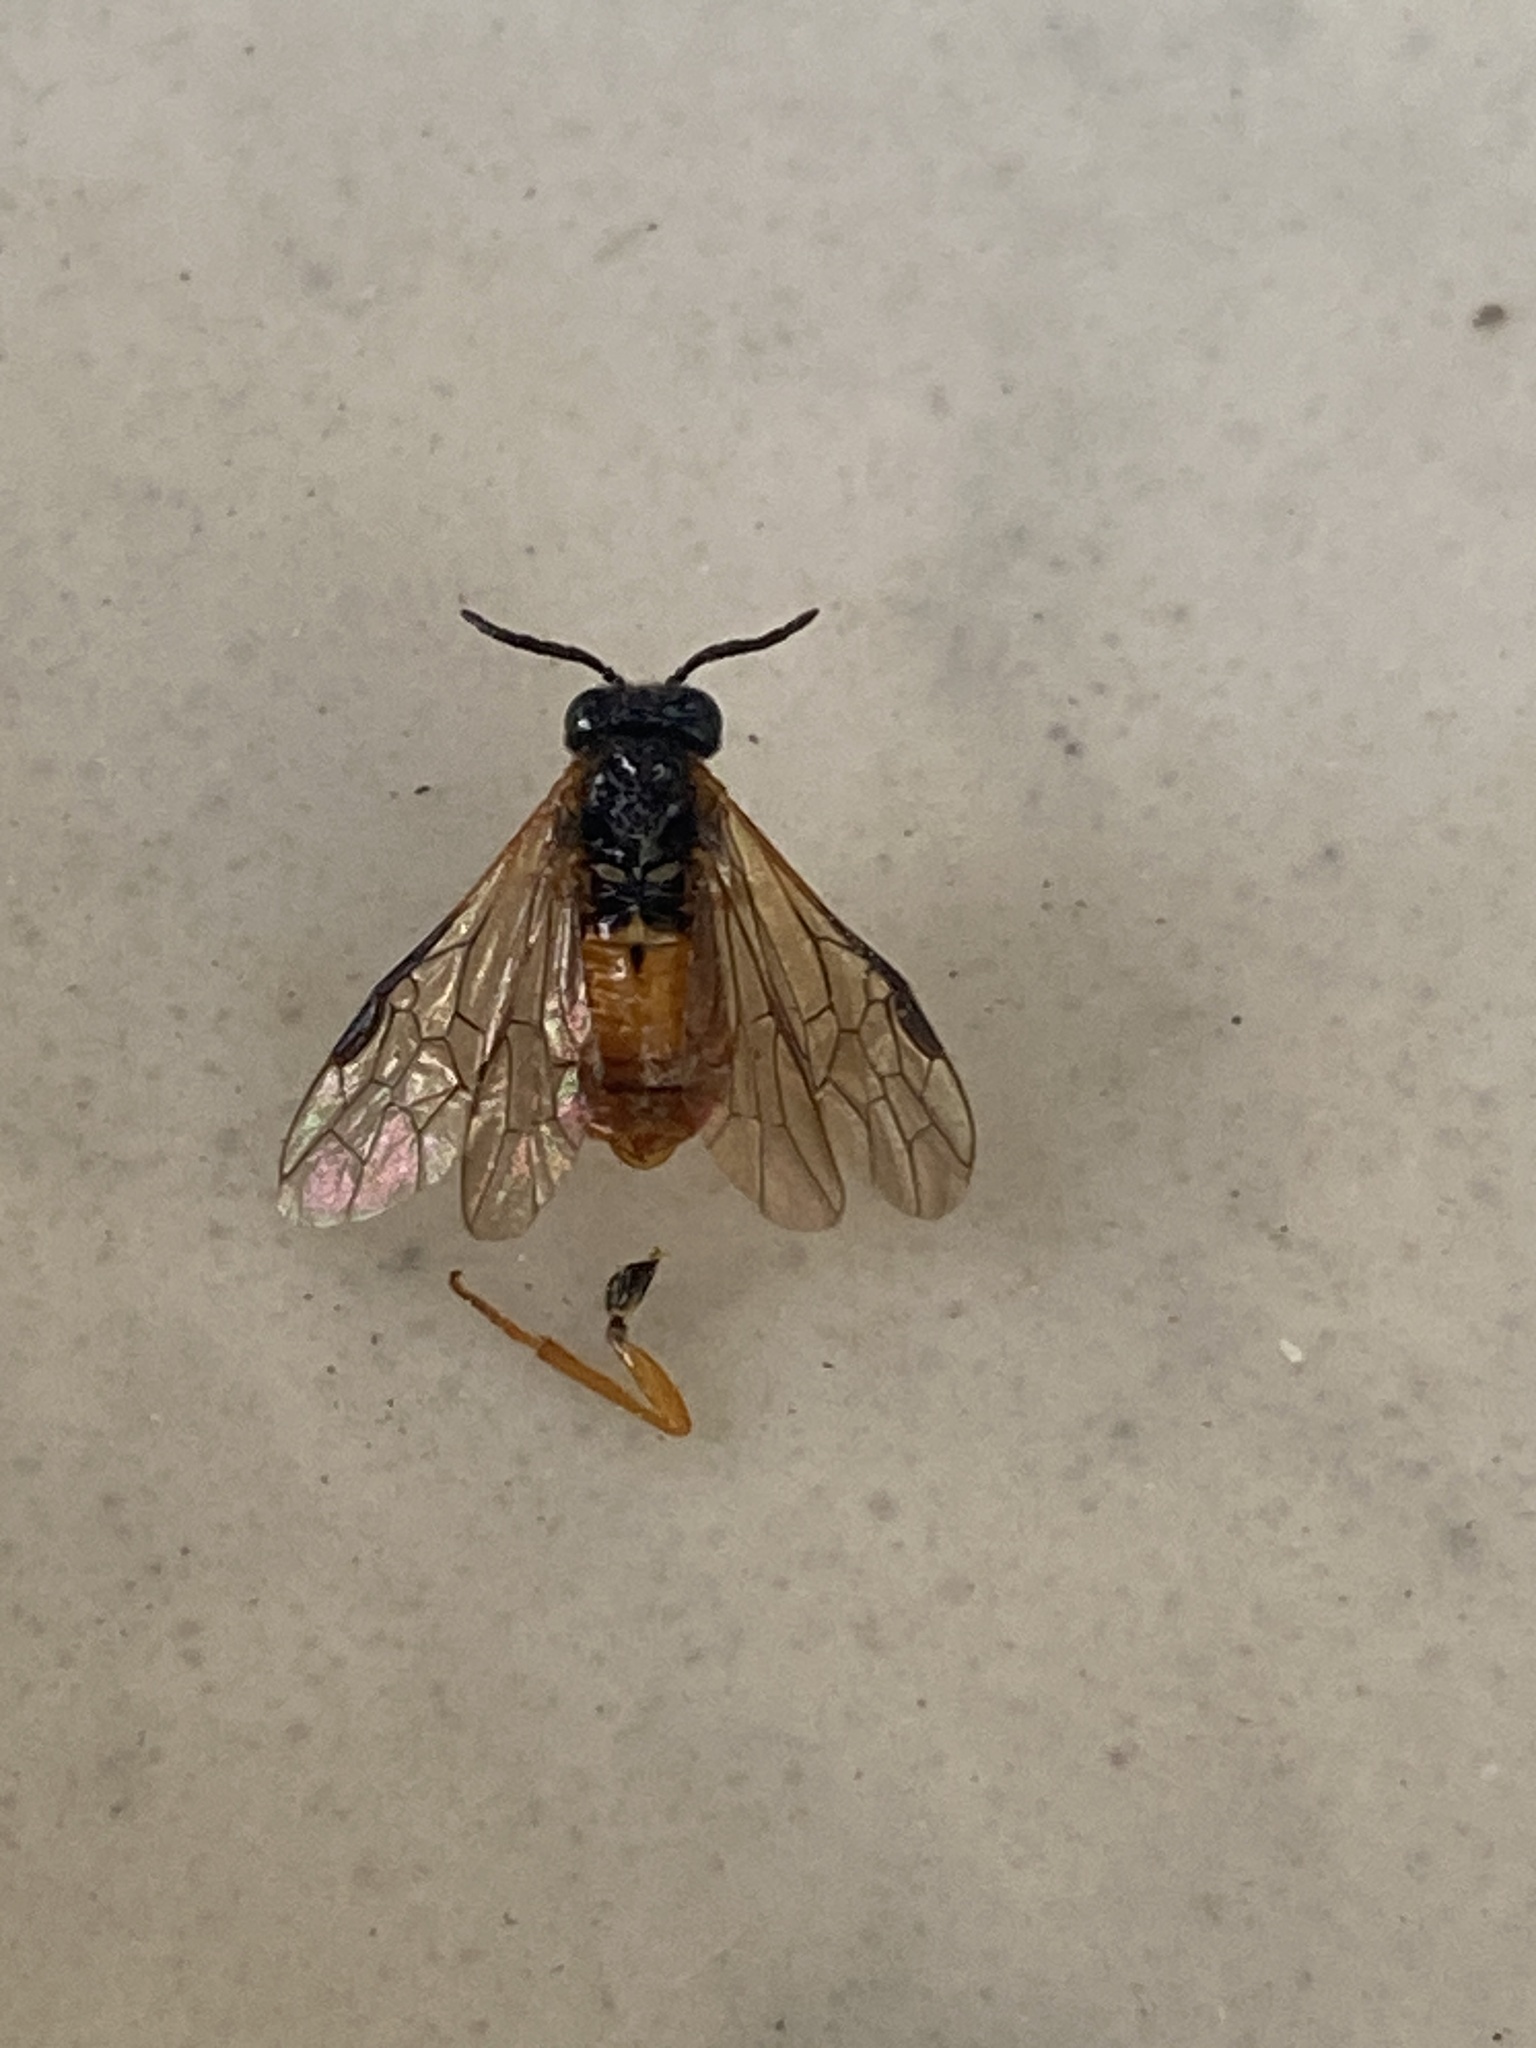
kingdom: Animalia
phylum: Arthropoda
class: Insecta
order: Hymenoptera
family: Tenthredinidae
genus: Selandria
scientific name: Selandria serva
